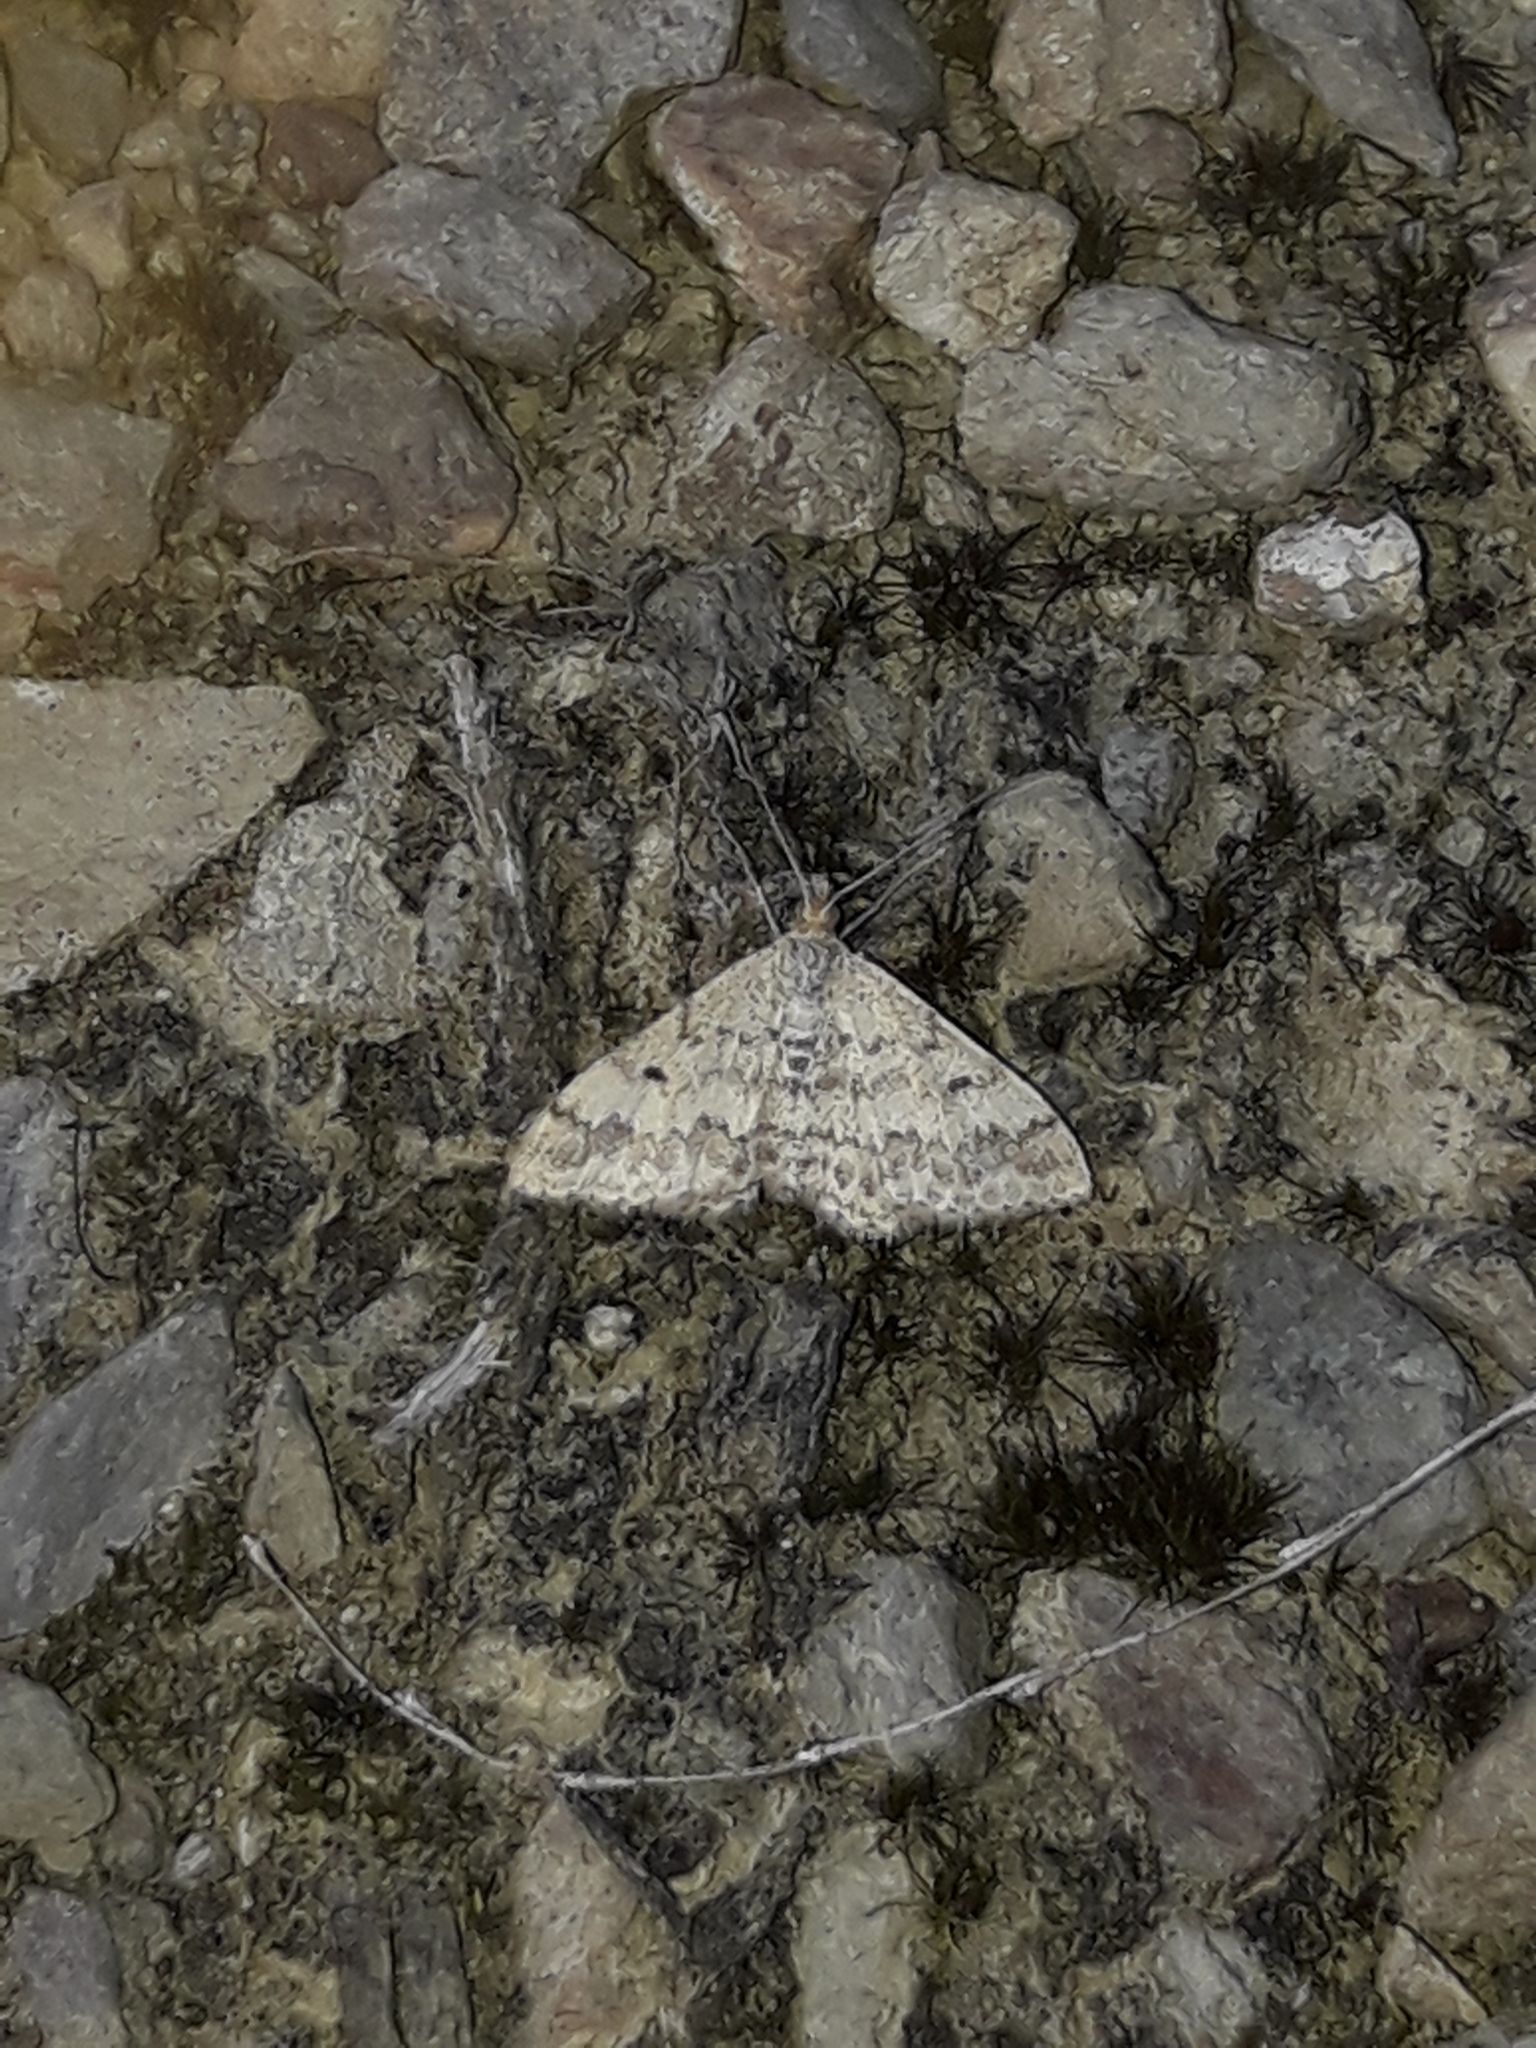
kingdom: Animalia
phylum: Arthropoda
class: Insecta
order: Lepidoptera
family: Geometridae
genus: Scopula
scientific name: Scopula rubraria
